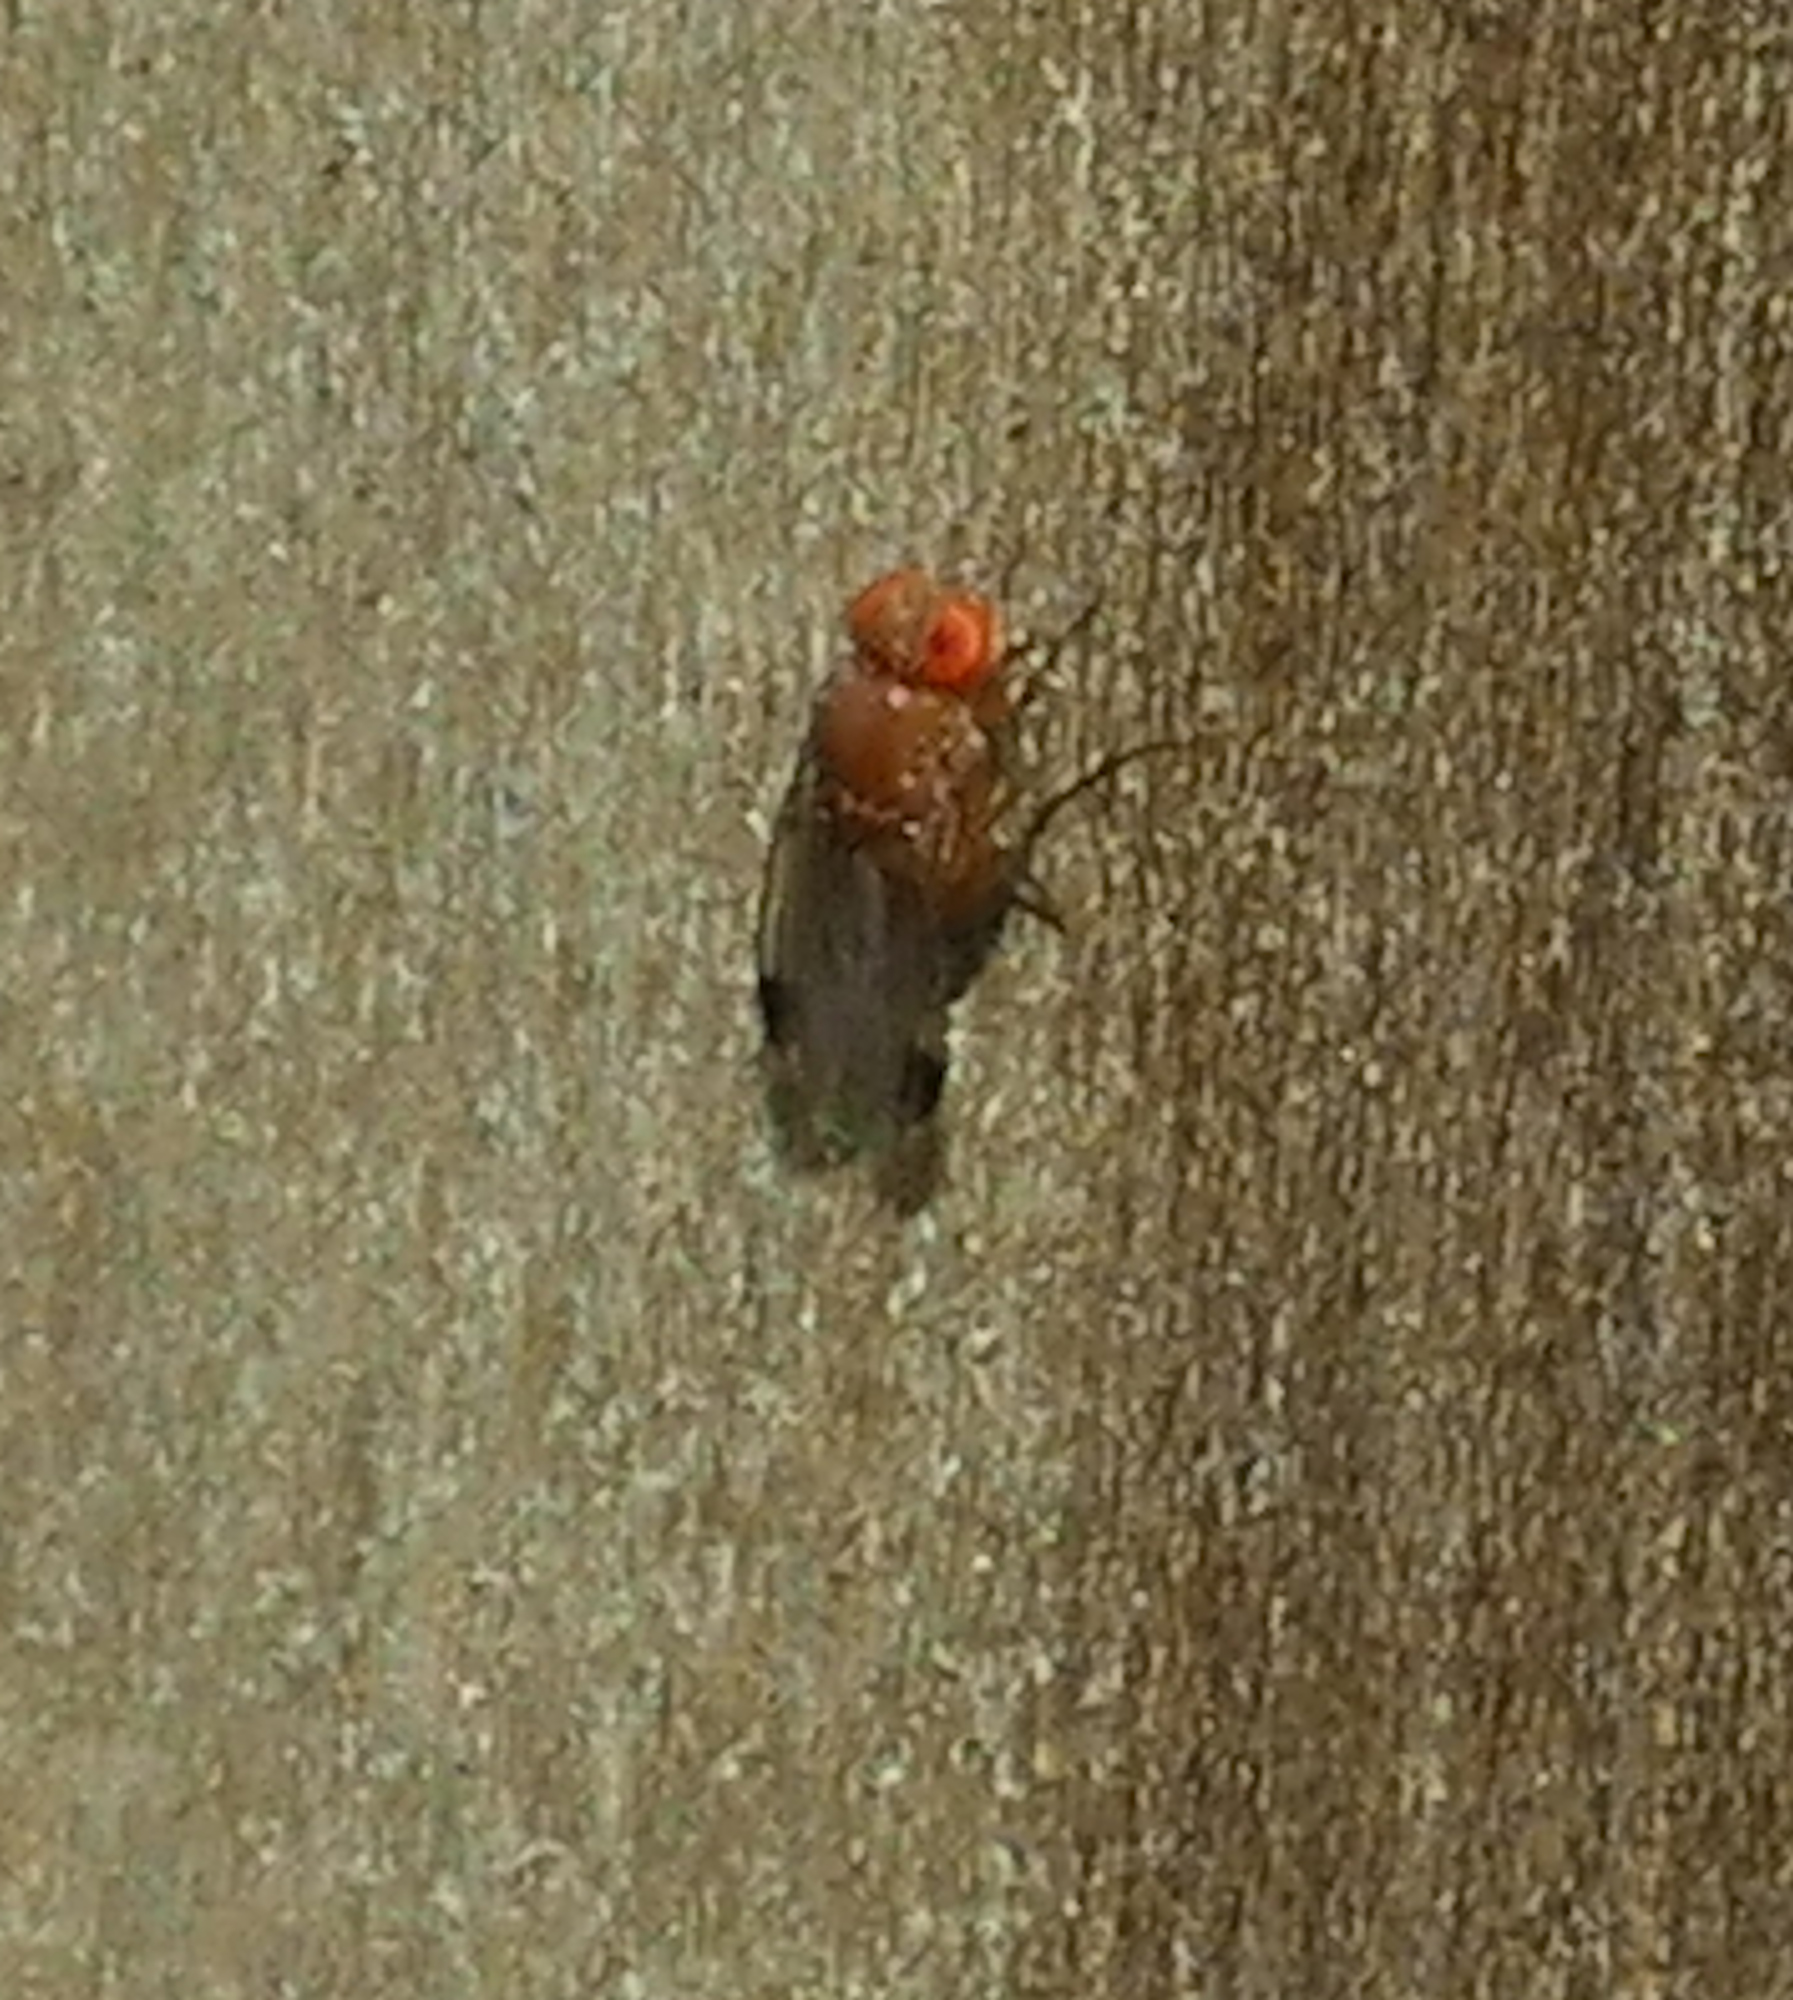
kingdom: Animalia
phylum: Arthropoda
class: Insecta
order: Diptera
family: Drosophilidae
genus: Drosophila
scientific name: Drosophila suzukii
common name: Spotted-wing drosophila
